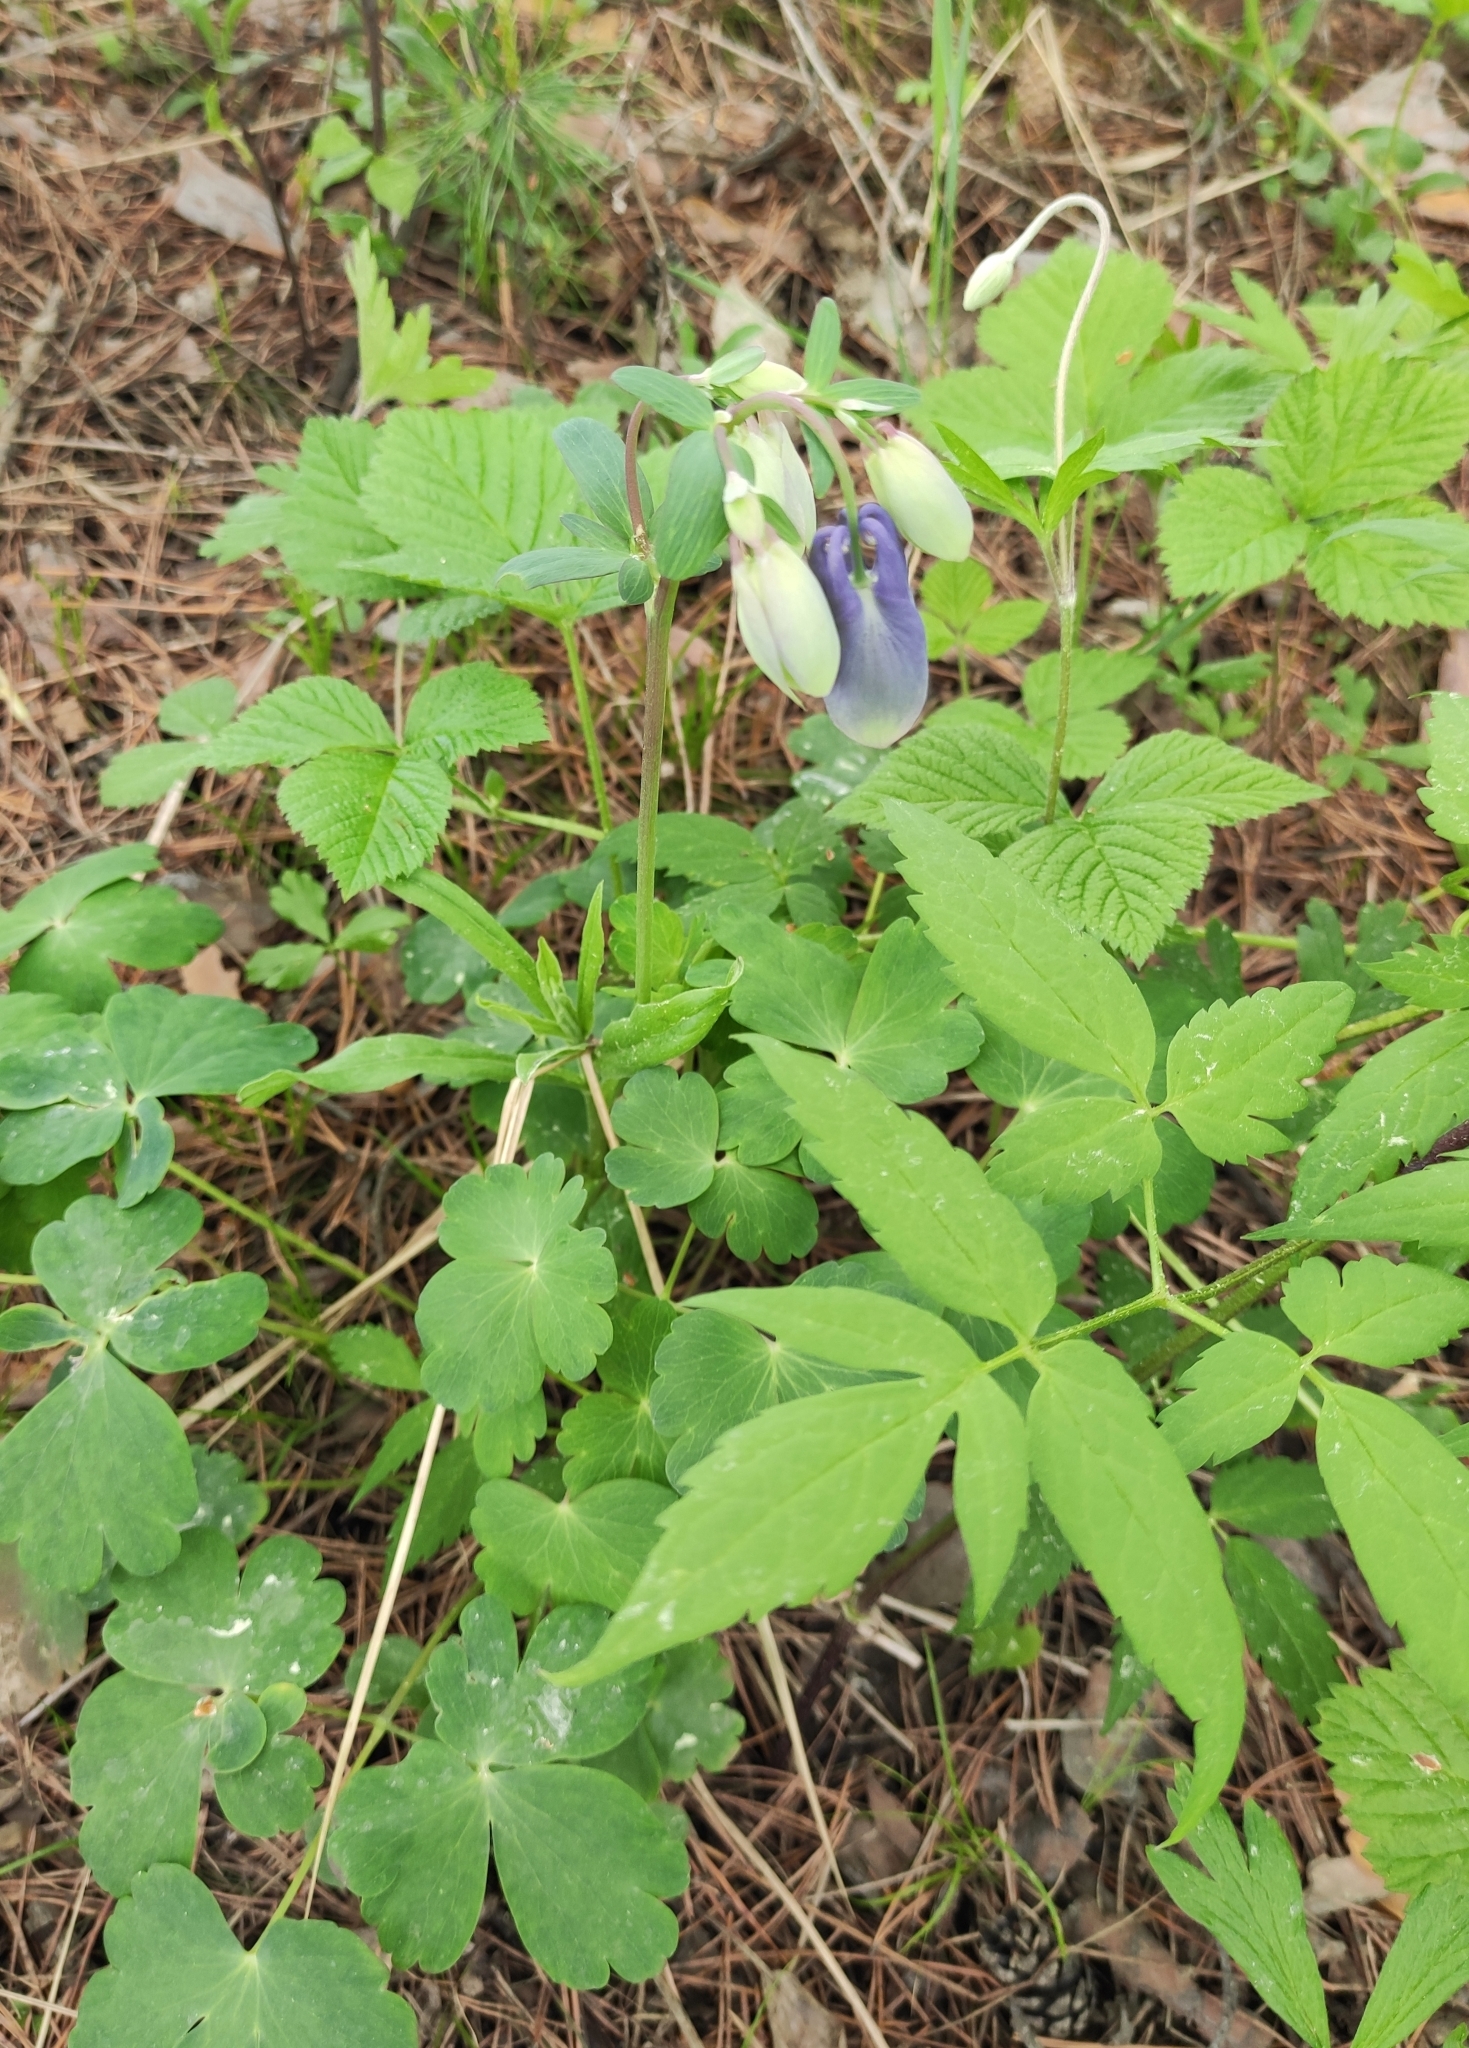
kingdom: Plantae
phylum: Tracheophyta
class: Magnoliopsida
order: Ranunculales
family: Ranunculaceae
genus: Aquilegia
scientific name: Aquilegia sibirica
